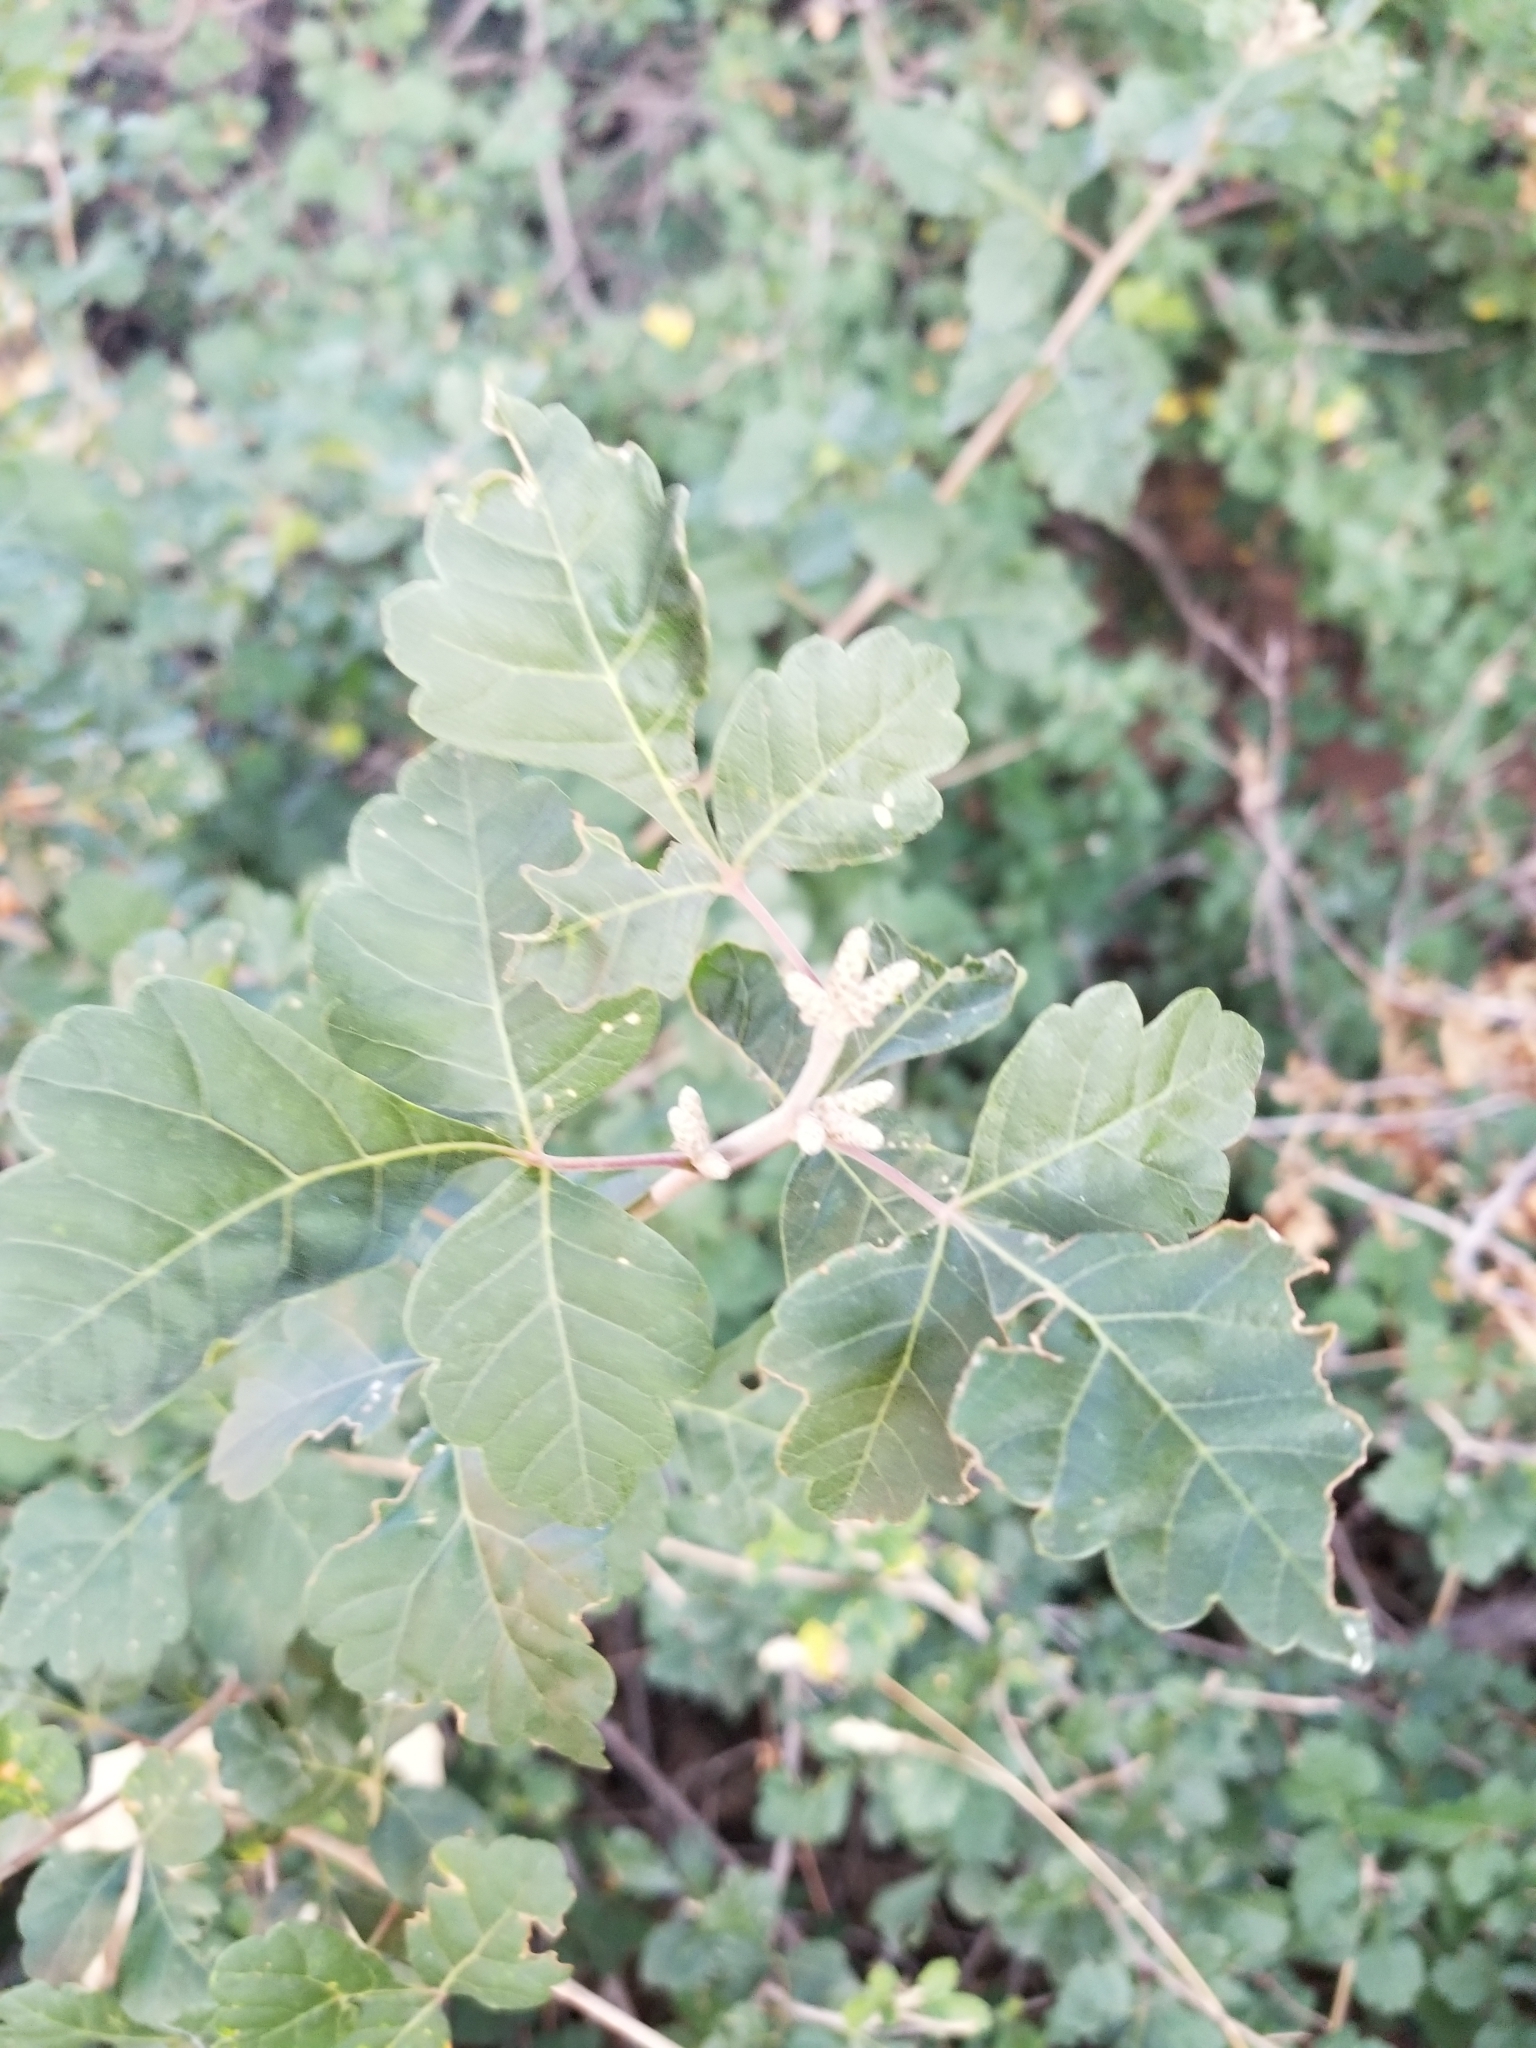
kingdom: Plantae
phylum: Tracheophyta
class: Magnoliopsida
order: Sapindales
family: Anacardiaceae
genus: Rhus
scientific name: Rhus aromatica
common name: Aromatic sumac
